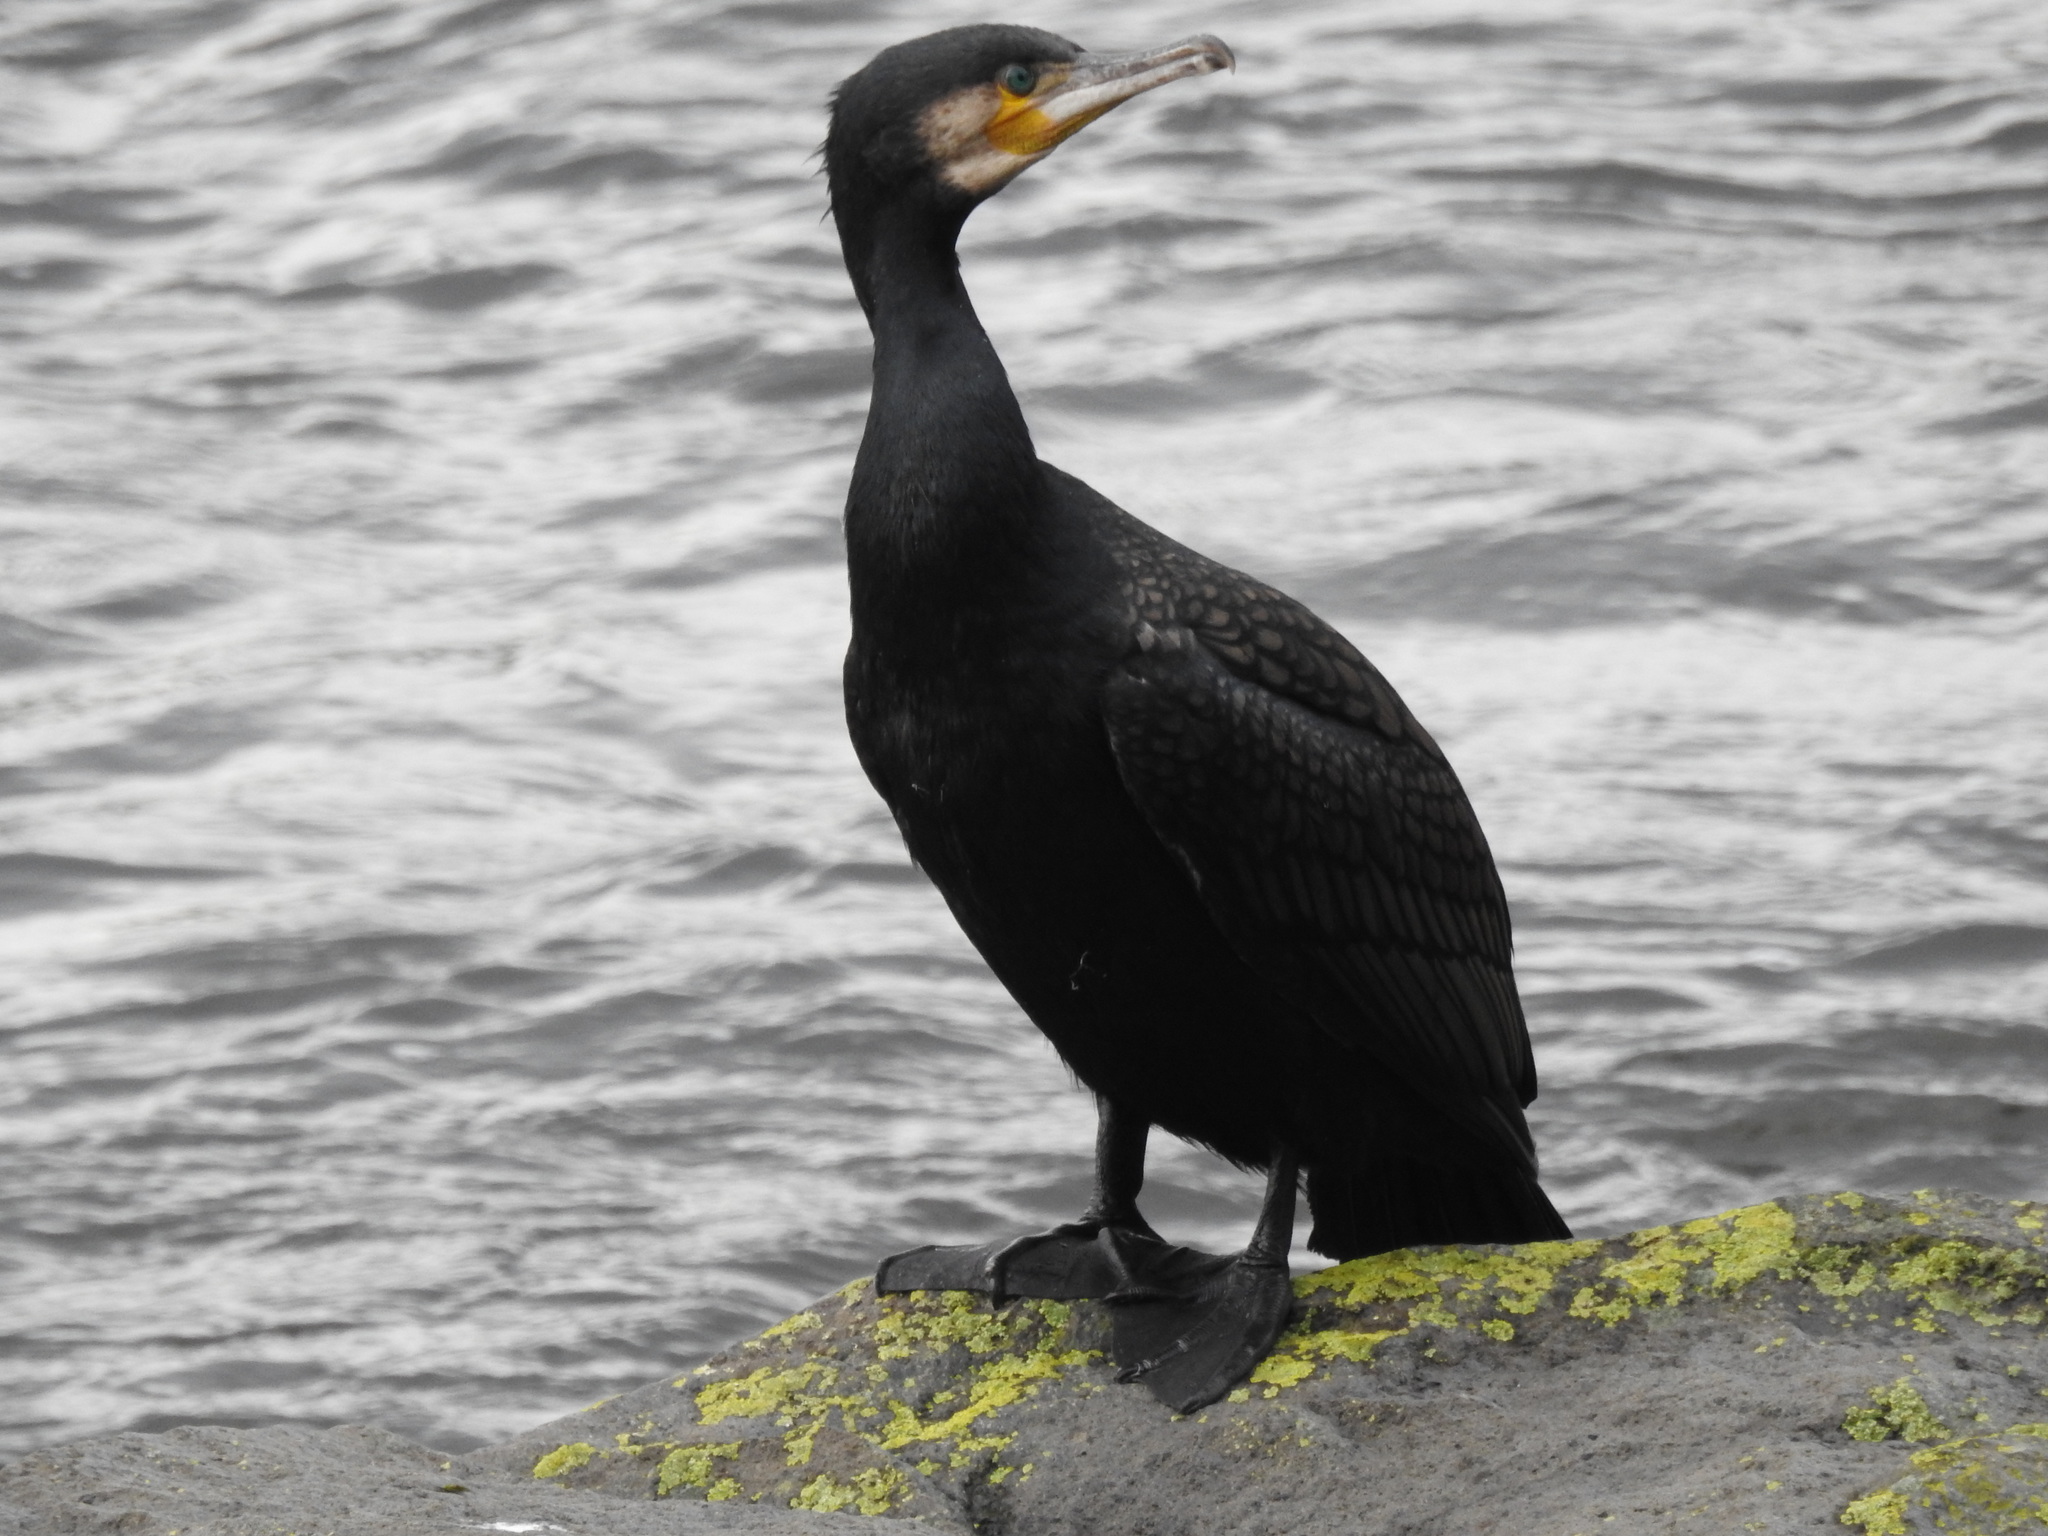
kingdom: Animalia
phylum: Chordata
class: Aves
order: Suliformes
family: Phalacrocoracidae
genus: Phalacrocorax
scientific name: Phalacrocorax carbo
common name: Great cormorant
